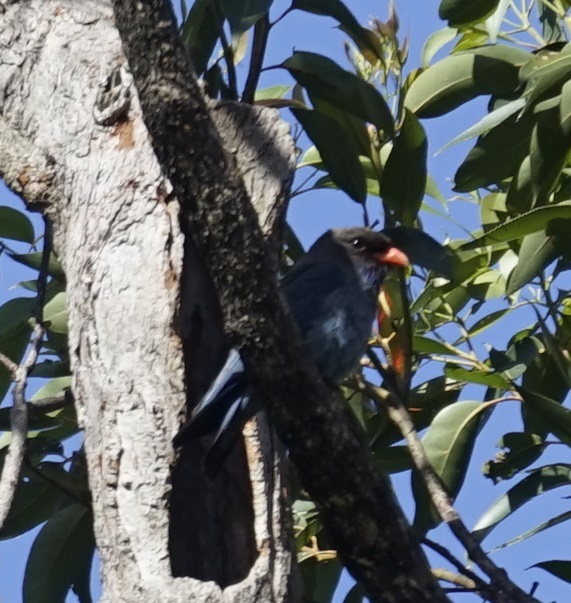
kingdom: Animalia
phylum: Chordata
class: Aves
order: Coraciiformes
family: Coraciidae
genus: Eurystomus
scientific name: Eurystomus orientalis
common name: Oriental dollarbird
